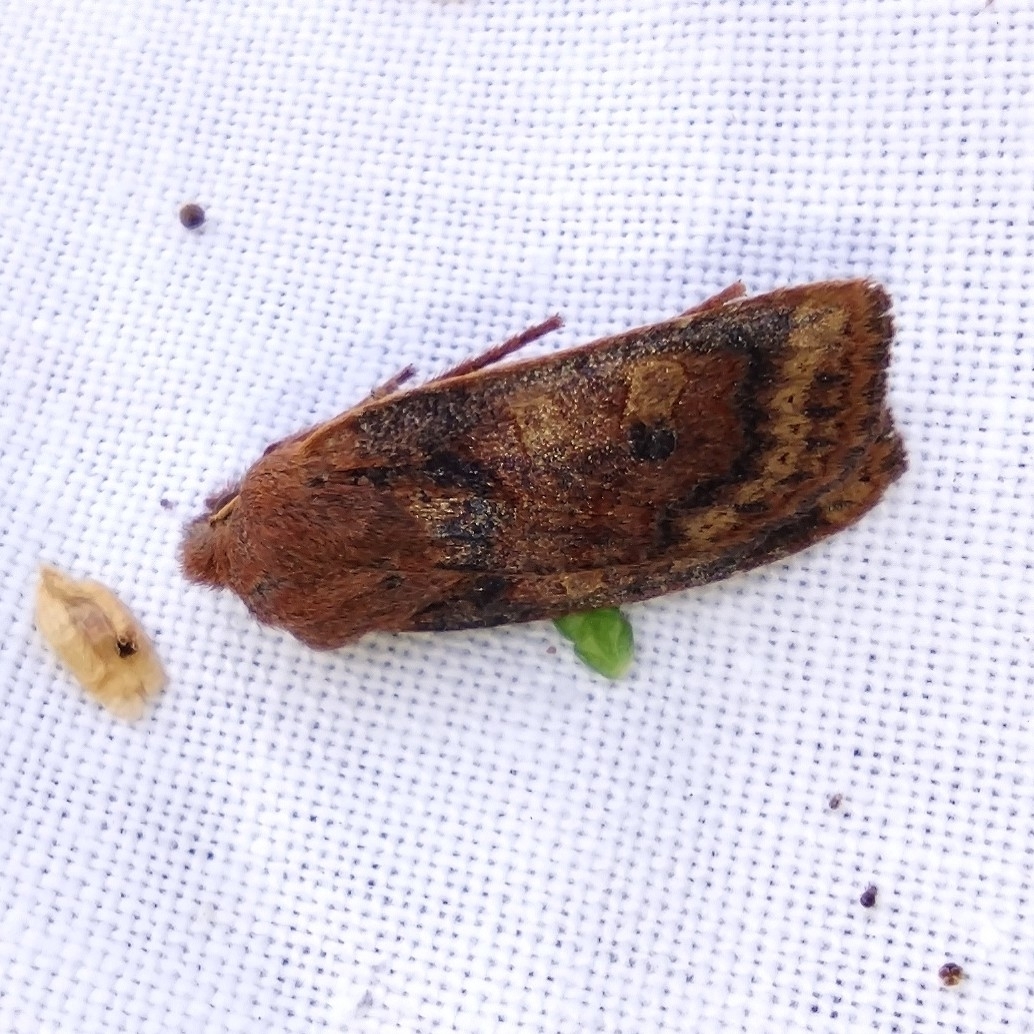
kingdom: Animalia
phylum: Arthropoda
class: Insecta
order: Lepidoptera
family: Noctuidae
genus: Conistra
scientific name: Conistra vaccinii
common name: Chestnut
